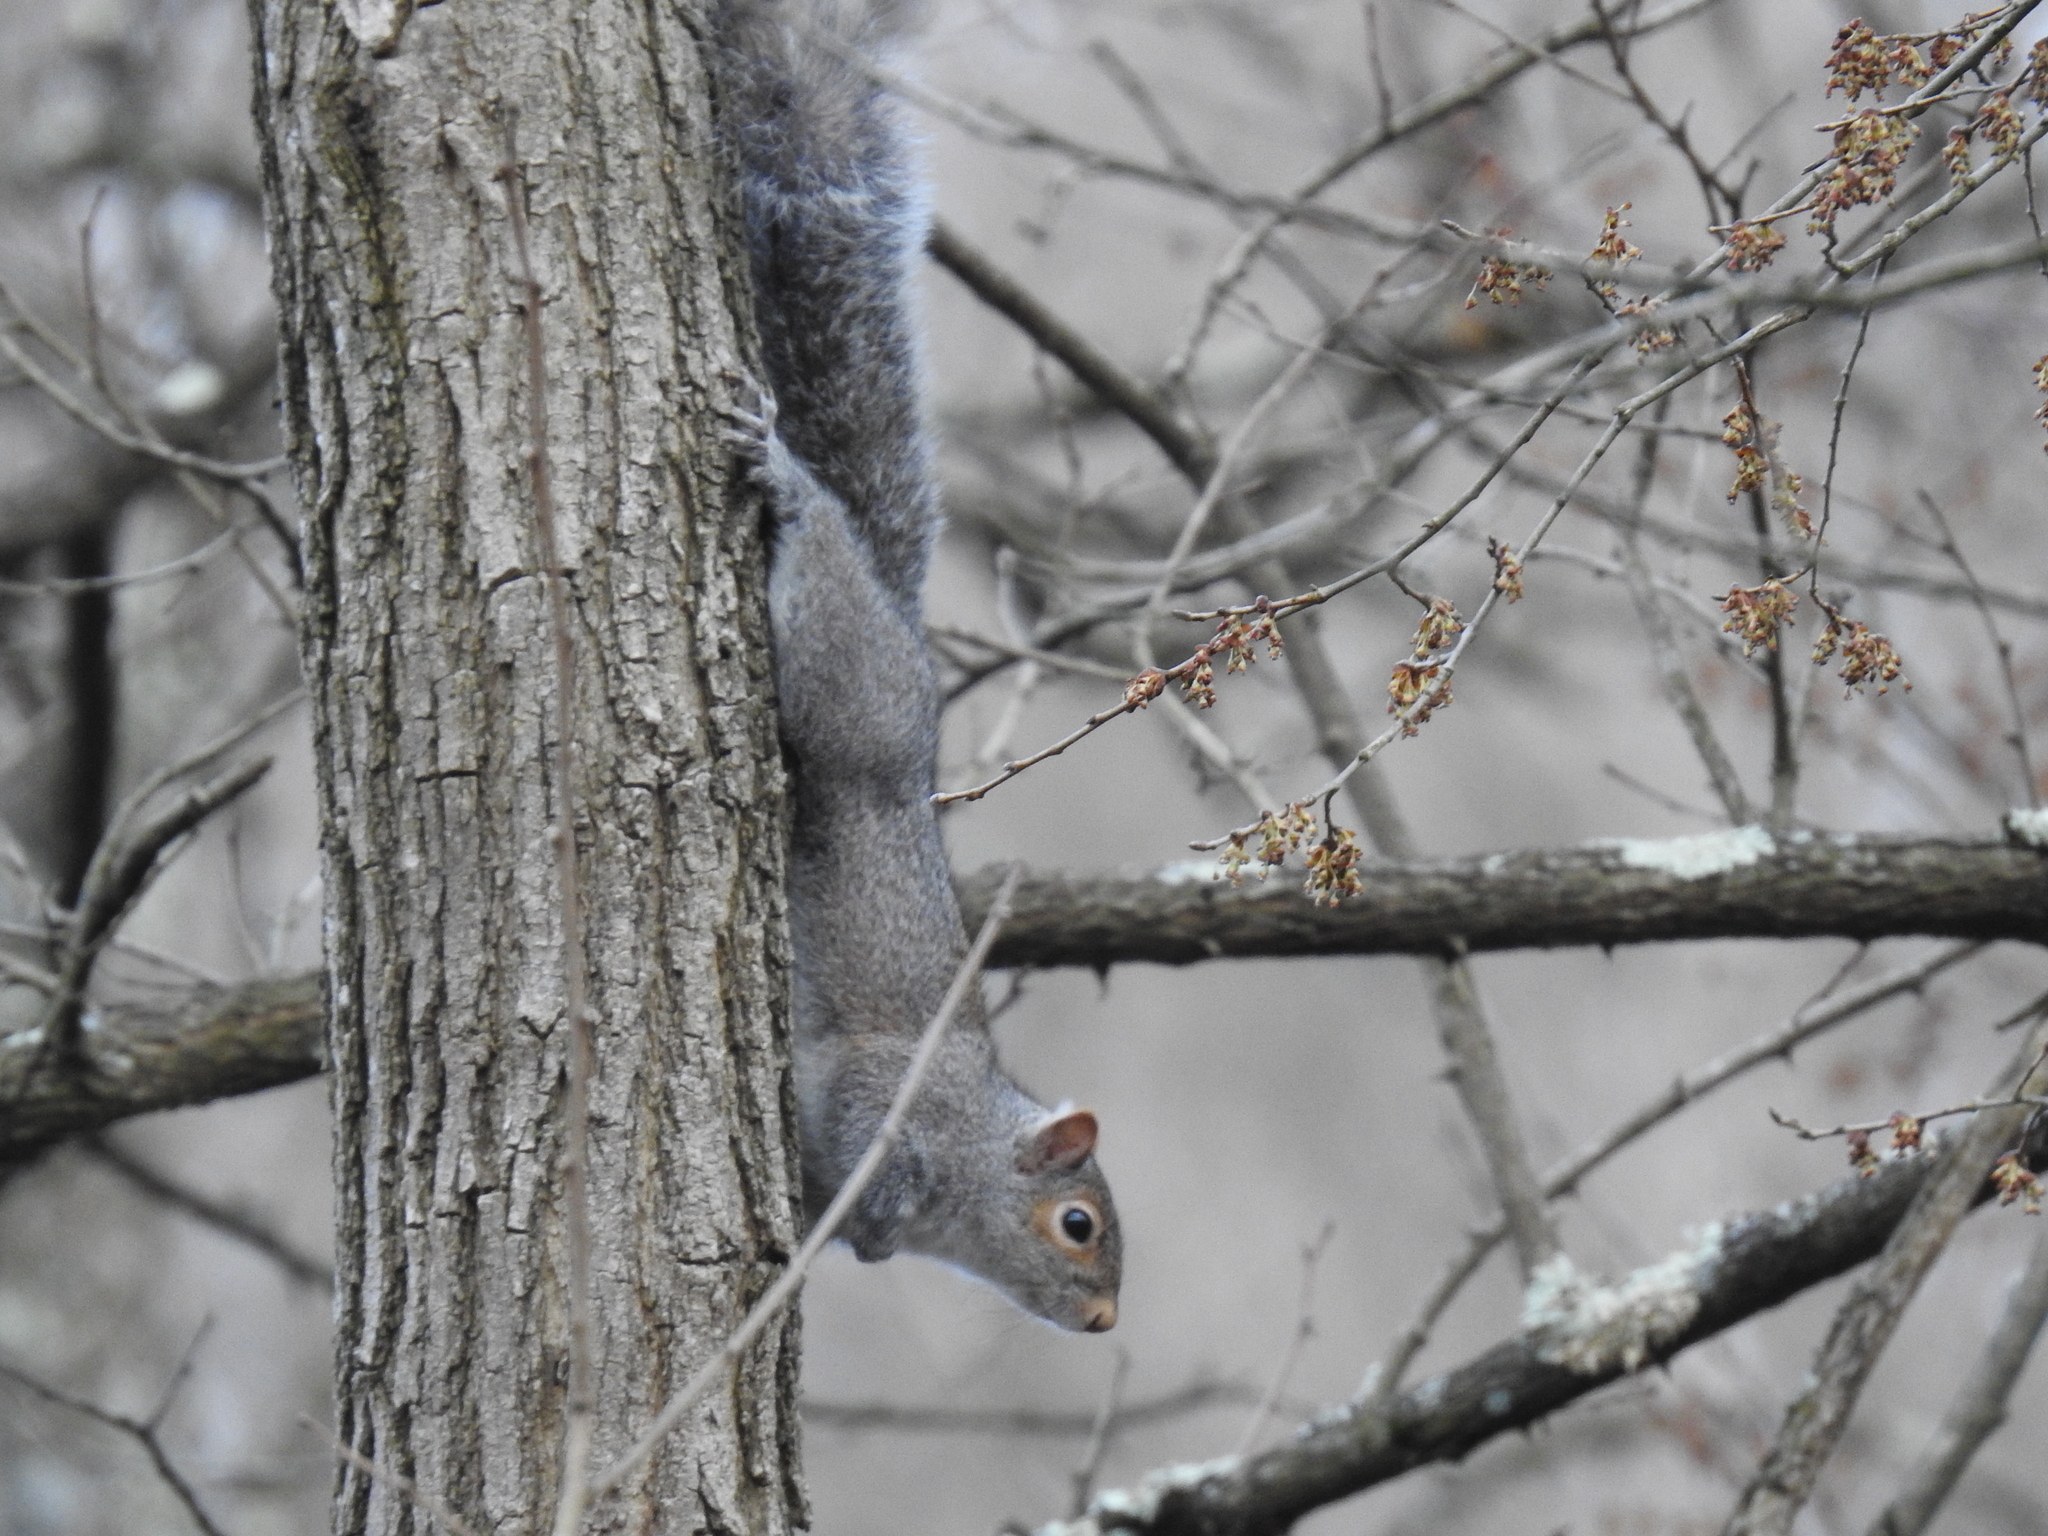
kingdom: Animalia
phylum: Chordata
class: Mammalia
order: Rodentia
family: Sciuridae
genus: Sciurus
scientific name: Sciurus carolinensis
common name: Eastern gray squirrel
